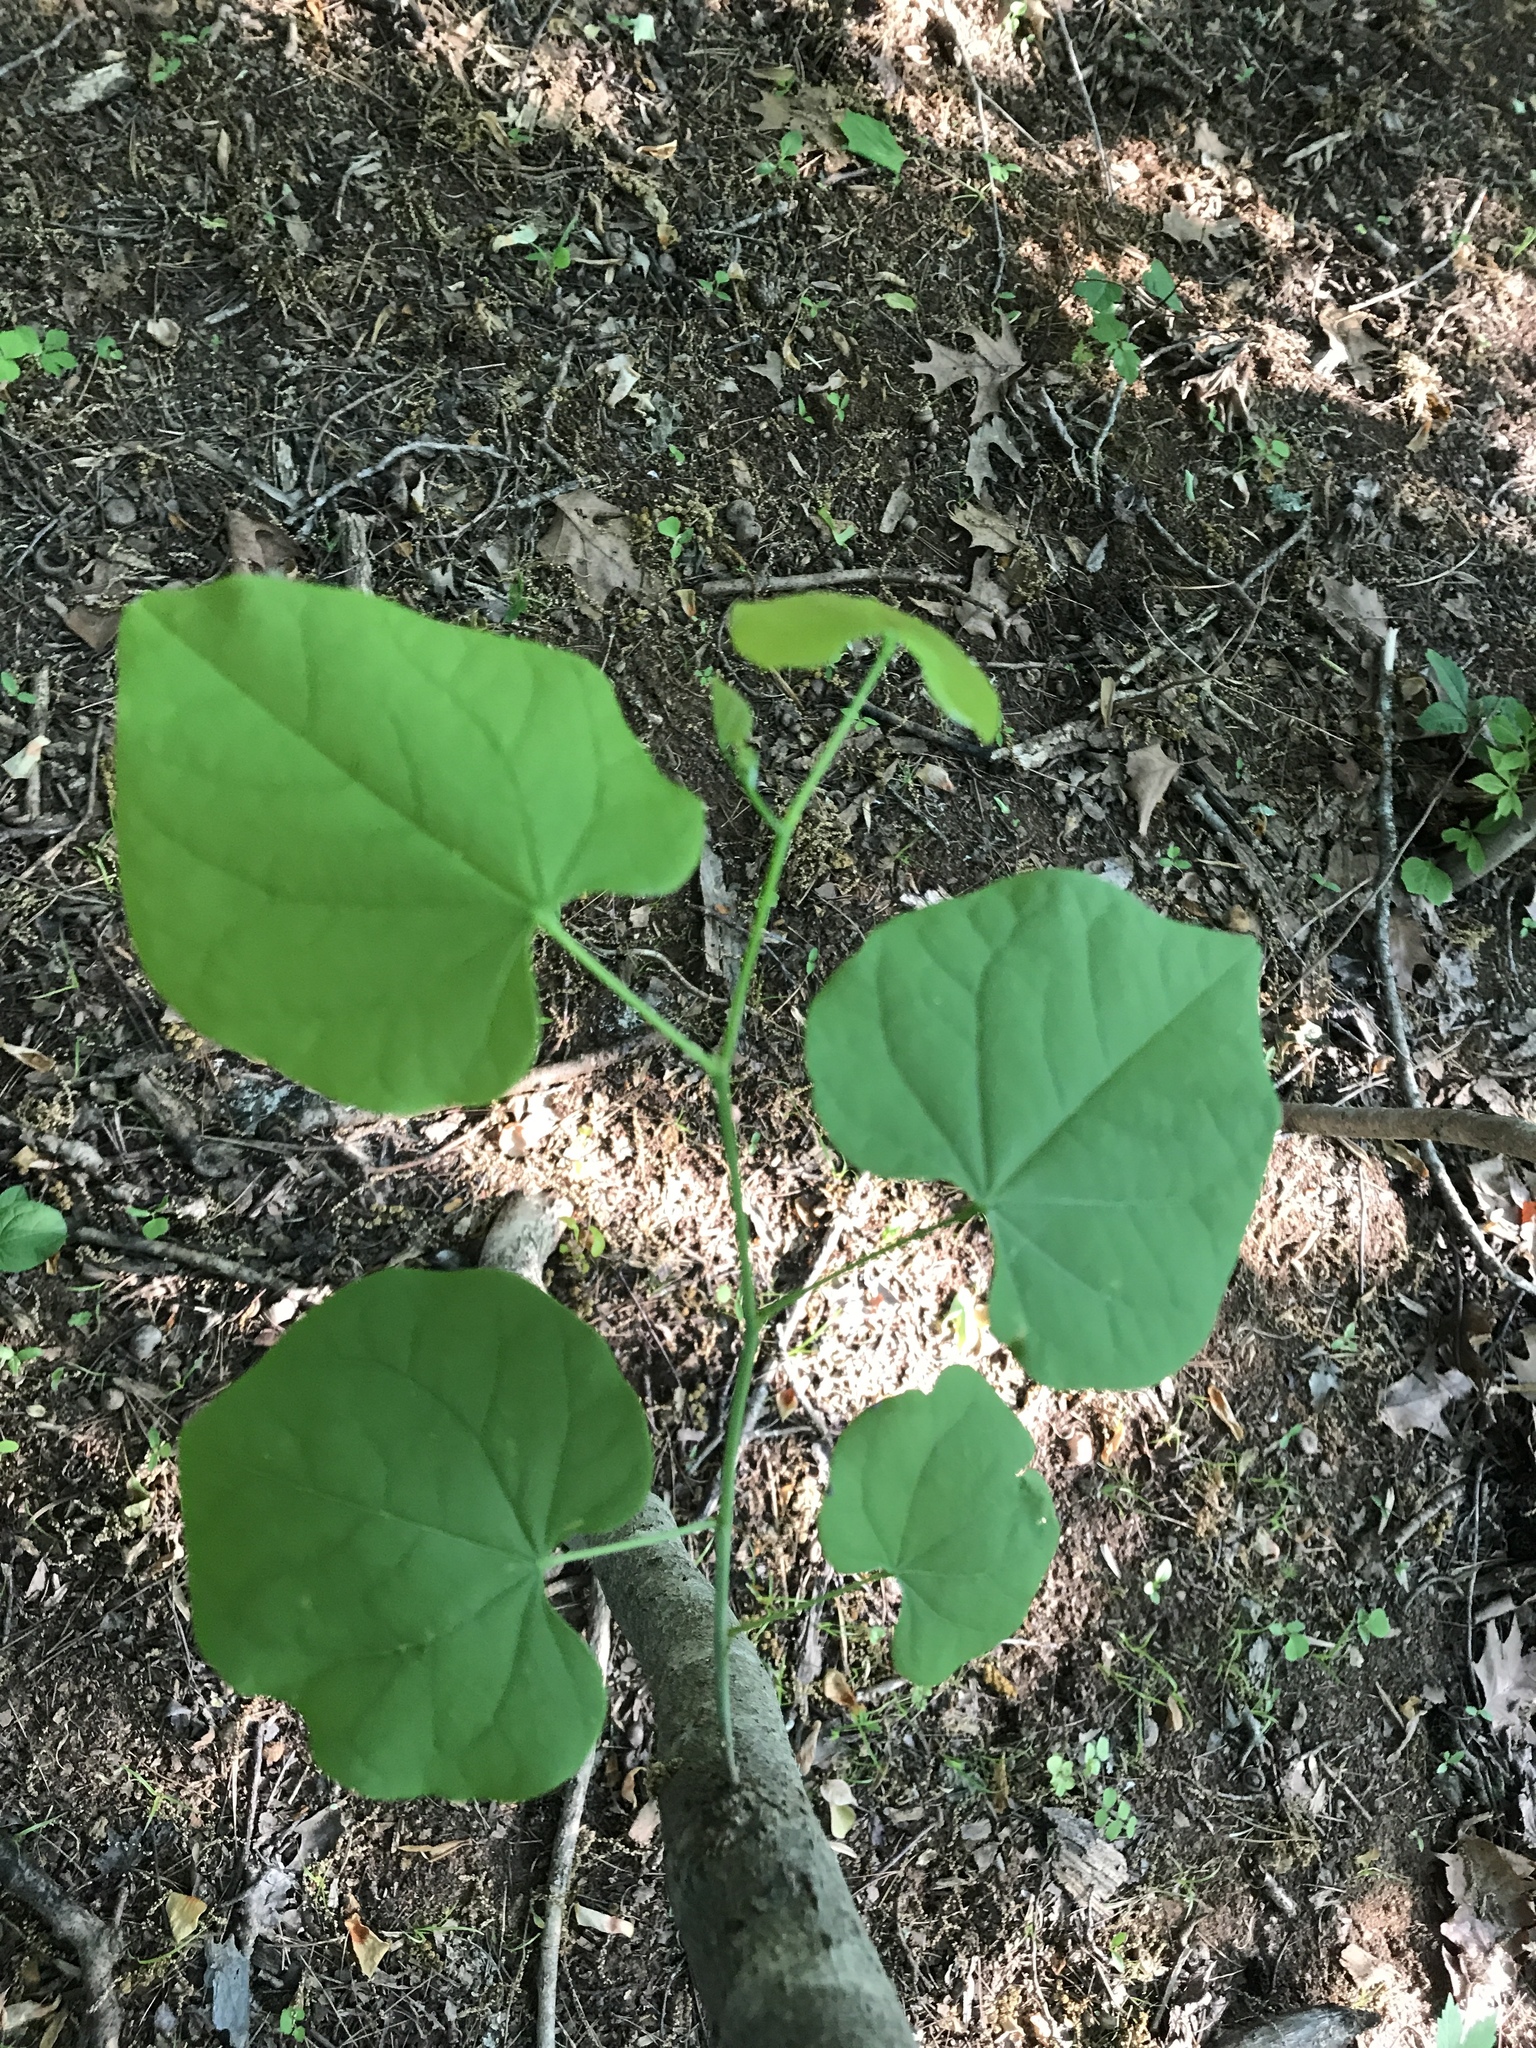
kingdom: Plantae
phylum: Tracheophyta
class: Magnoliopsida
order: Fabales
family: Fabaceae
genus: Cercis
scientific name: Cercis canadensis
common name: Eastern redbud
